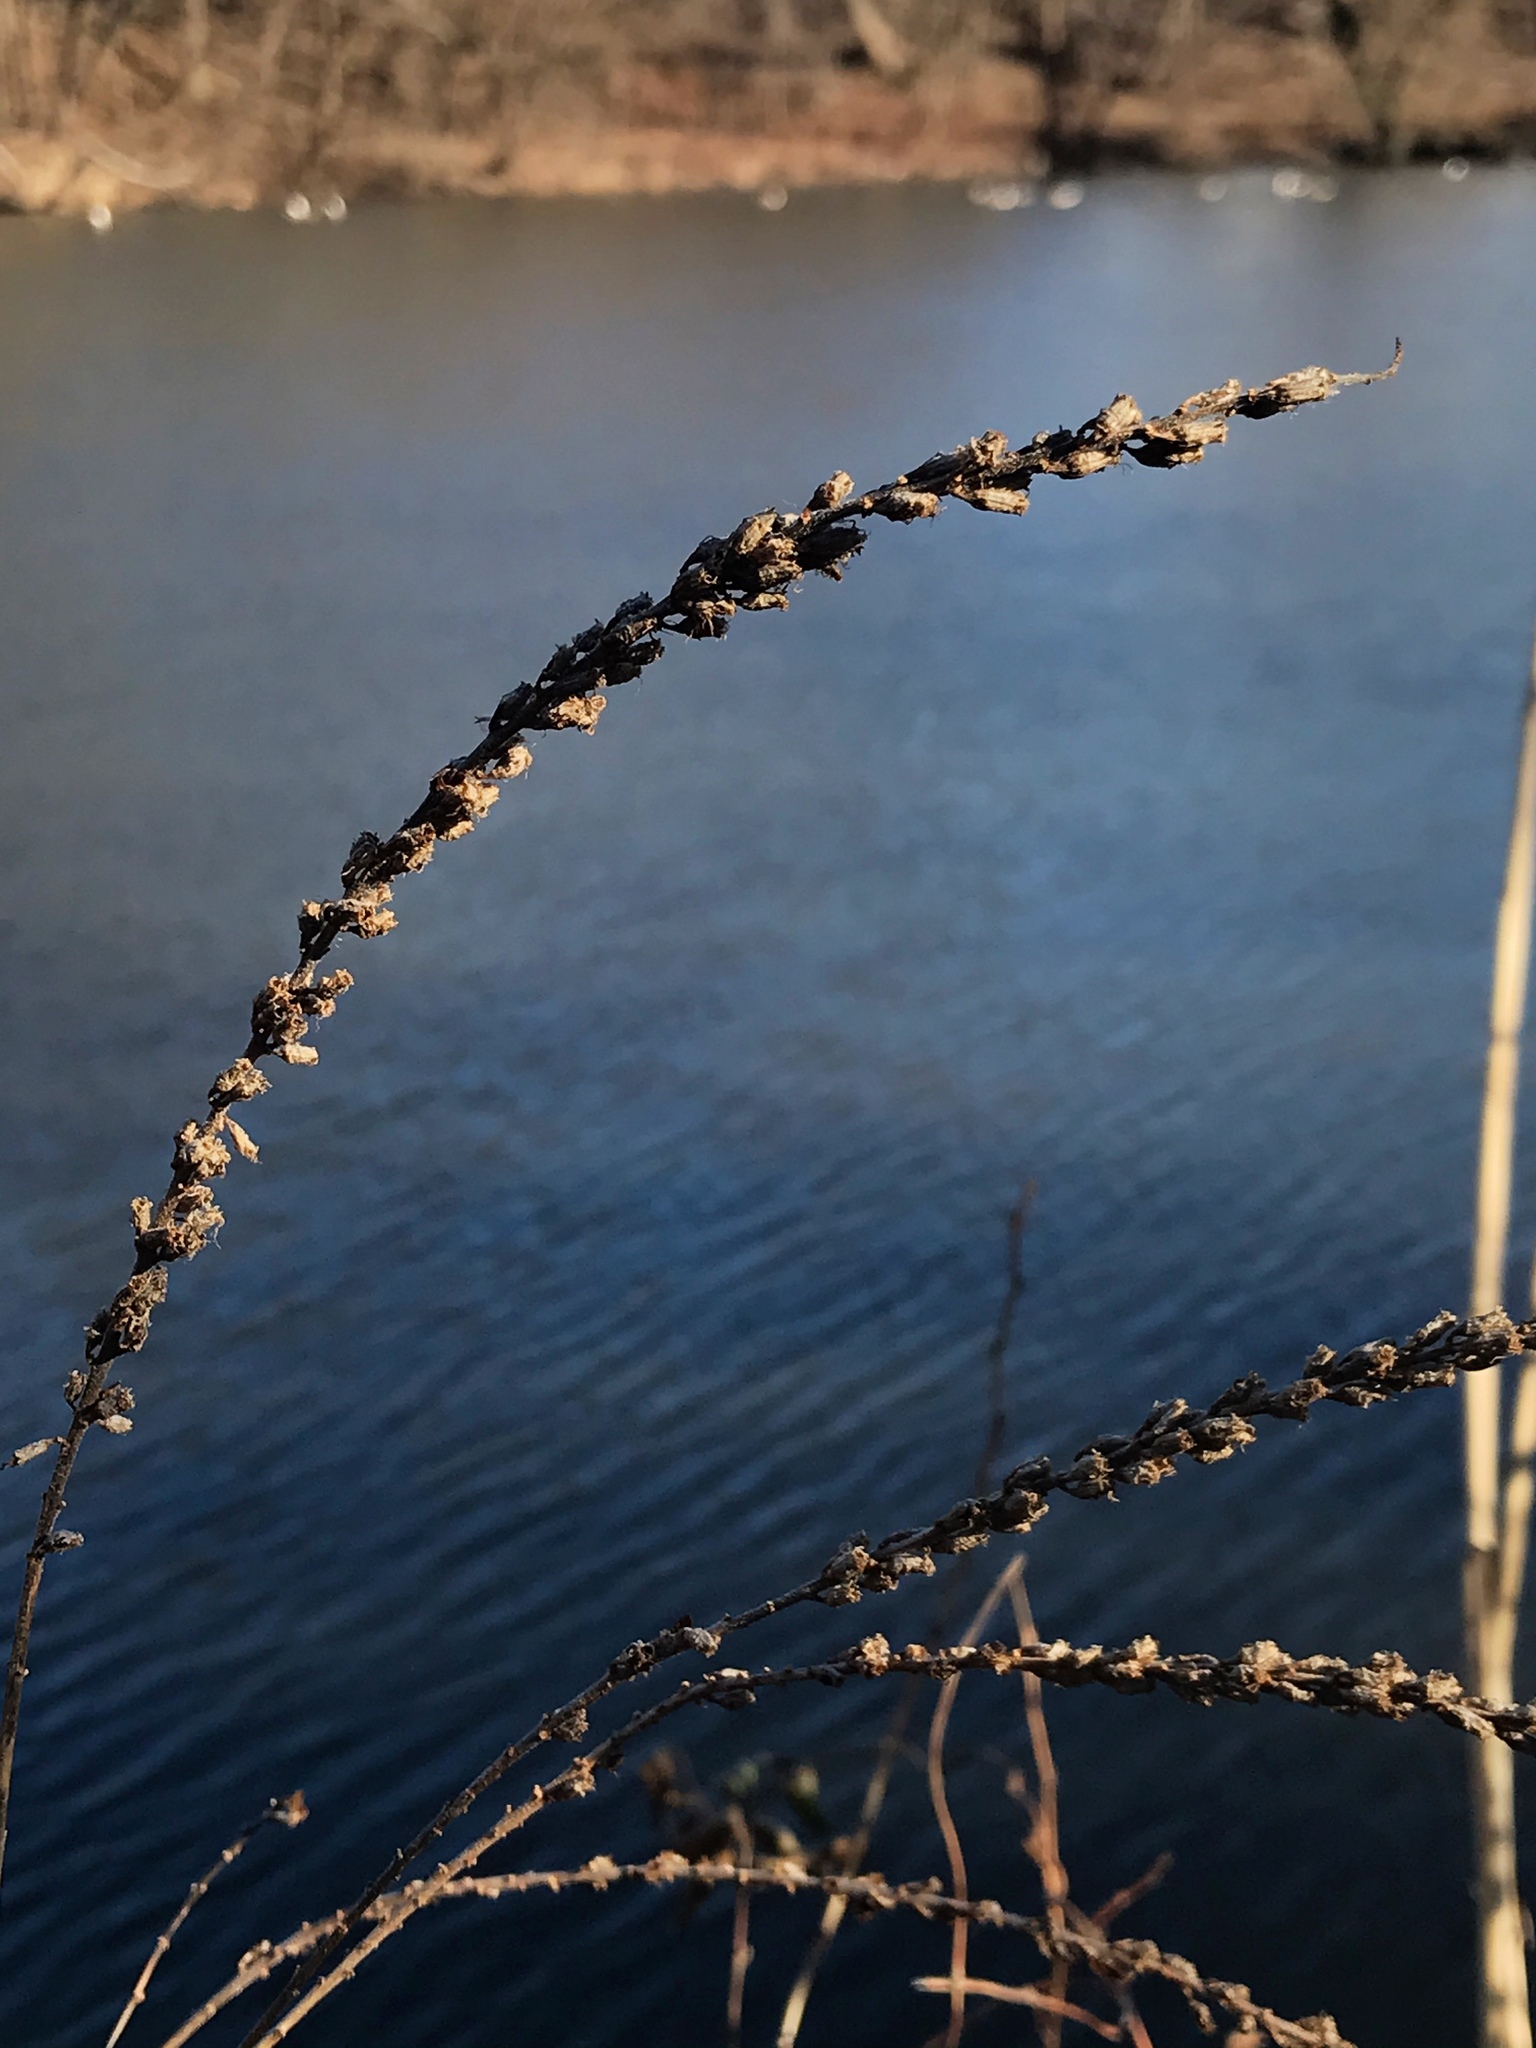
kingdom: Plantae
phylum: Tracheophyta
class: Magnoliopsida
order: Lamiales
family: Verbenaceae
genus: Verbena
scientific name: Verbena hastata
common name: American blue vervain
